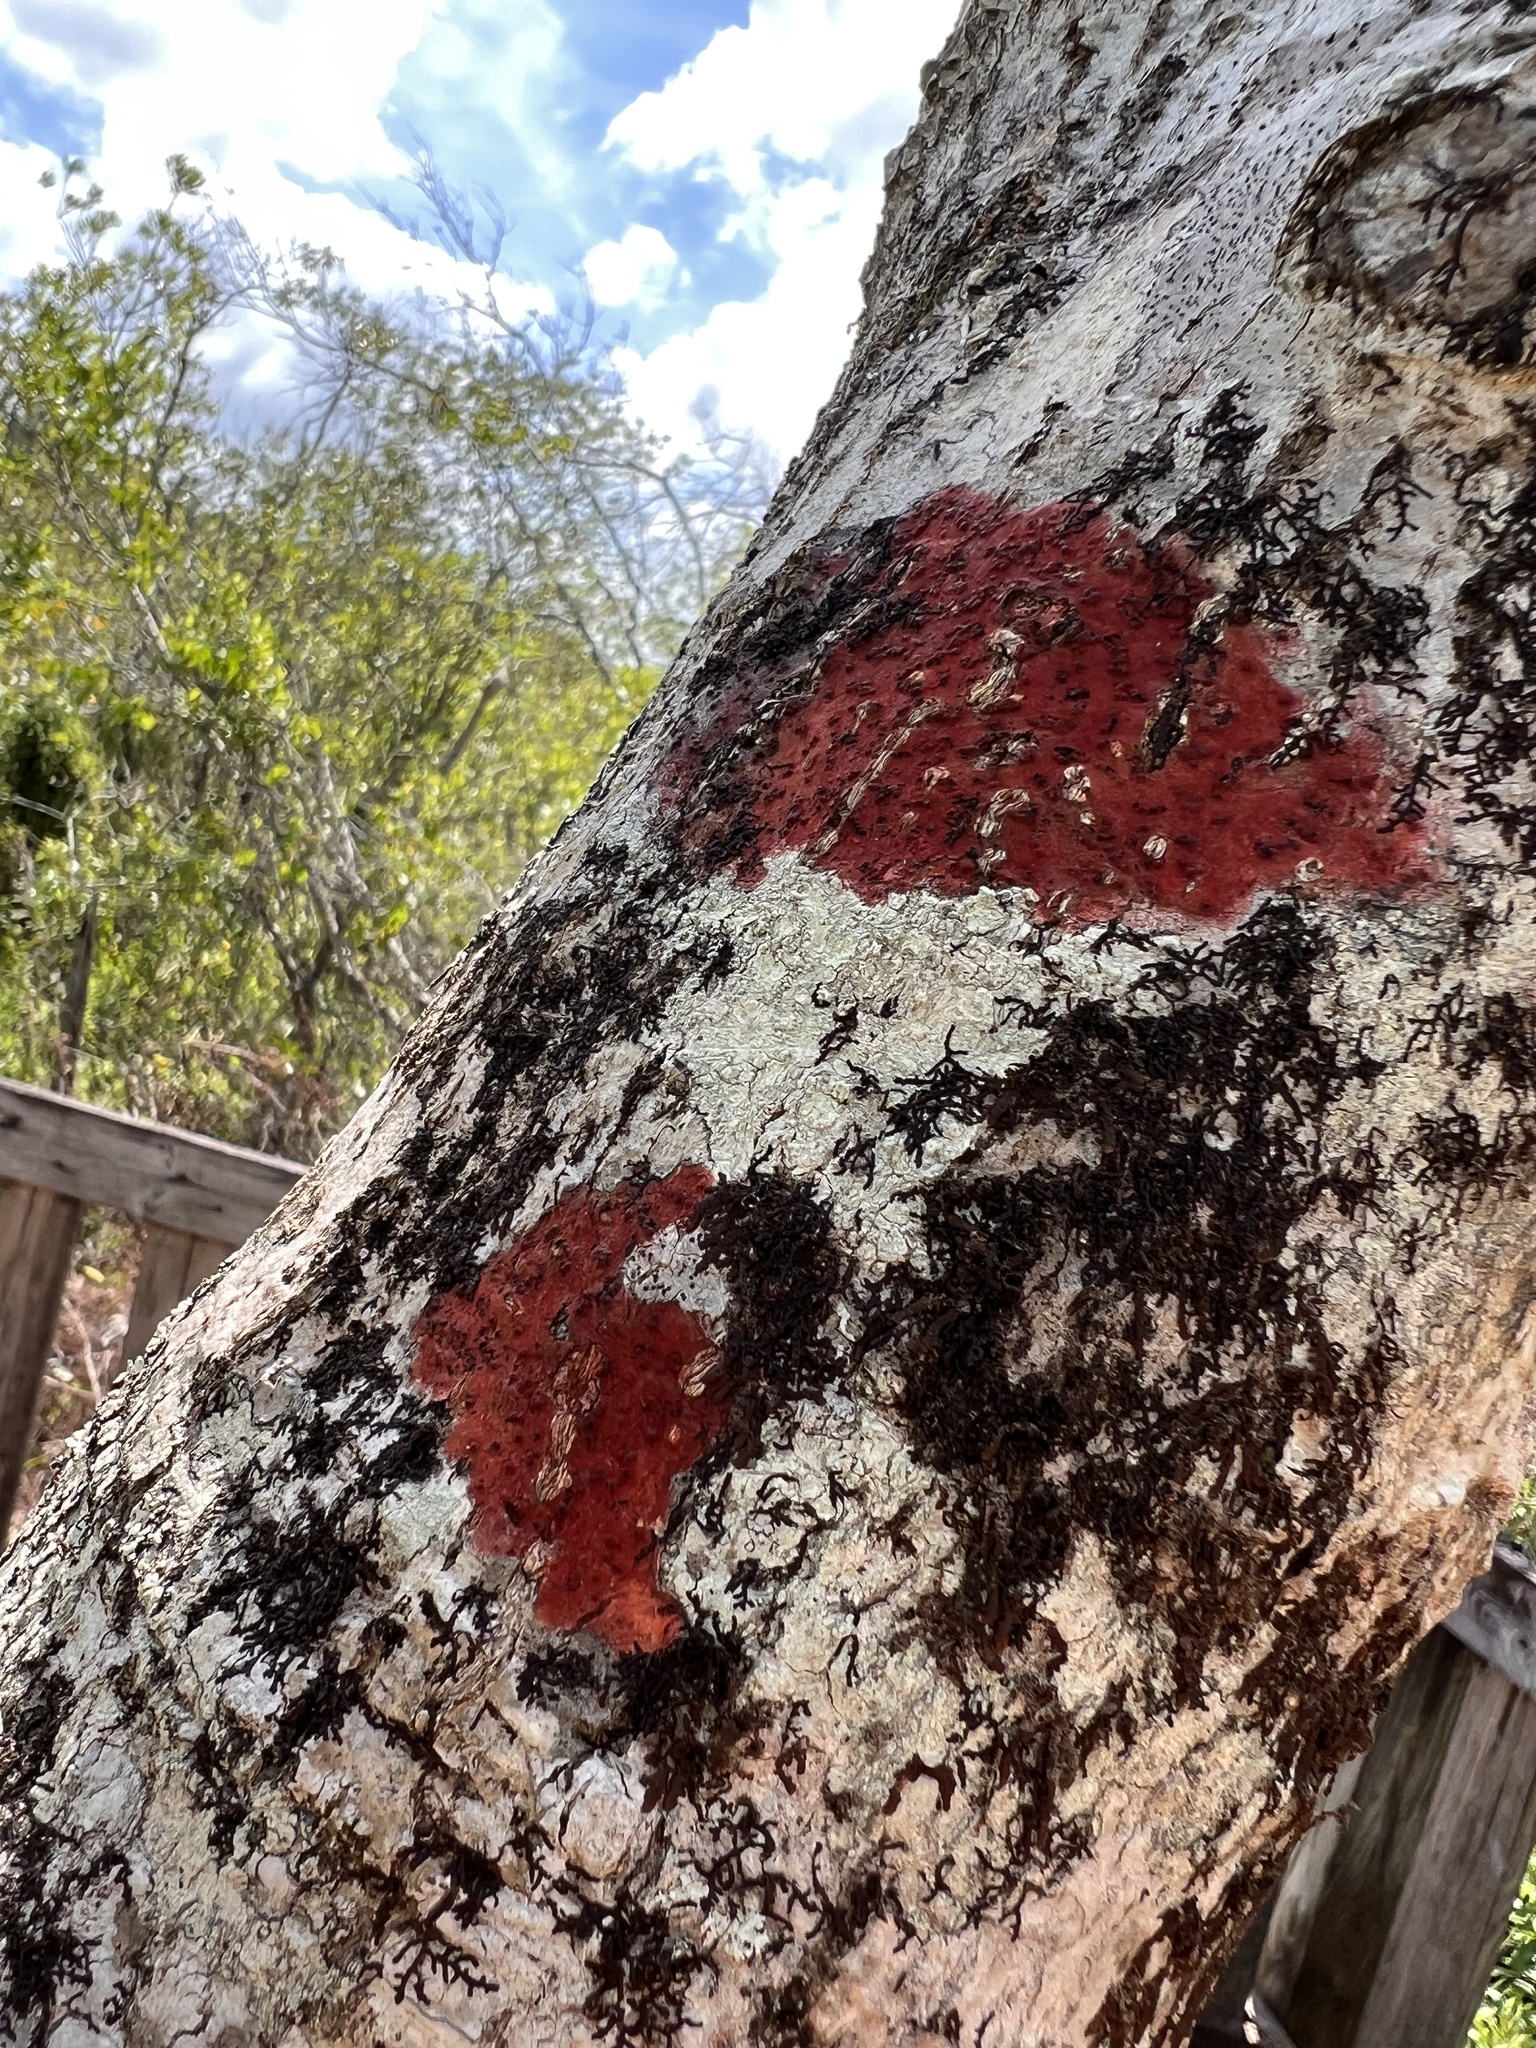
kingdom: Fungi
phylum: Ascomycota
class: Eurotiomycetes
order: Pyrenulales
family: Pyrenulaceae
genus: Pyrenula
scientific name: Pyrenula cruenta
